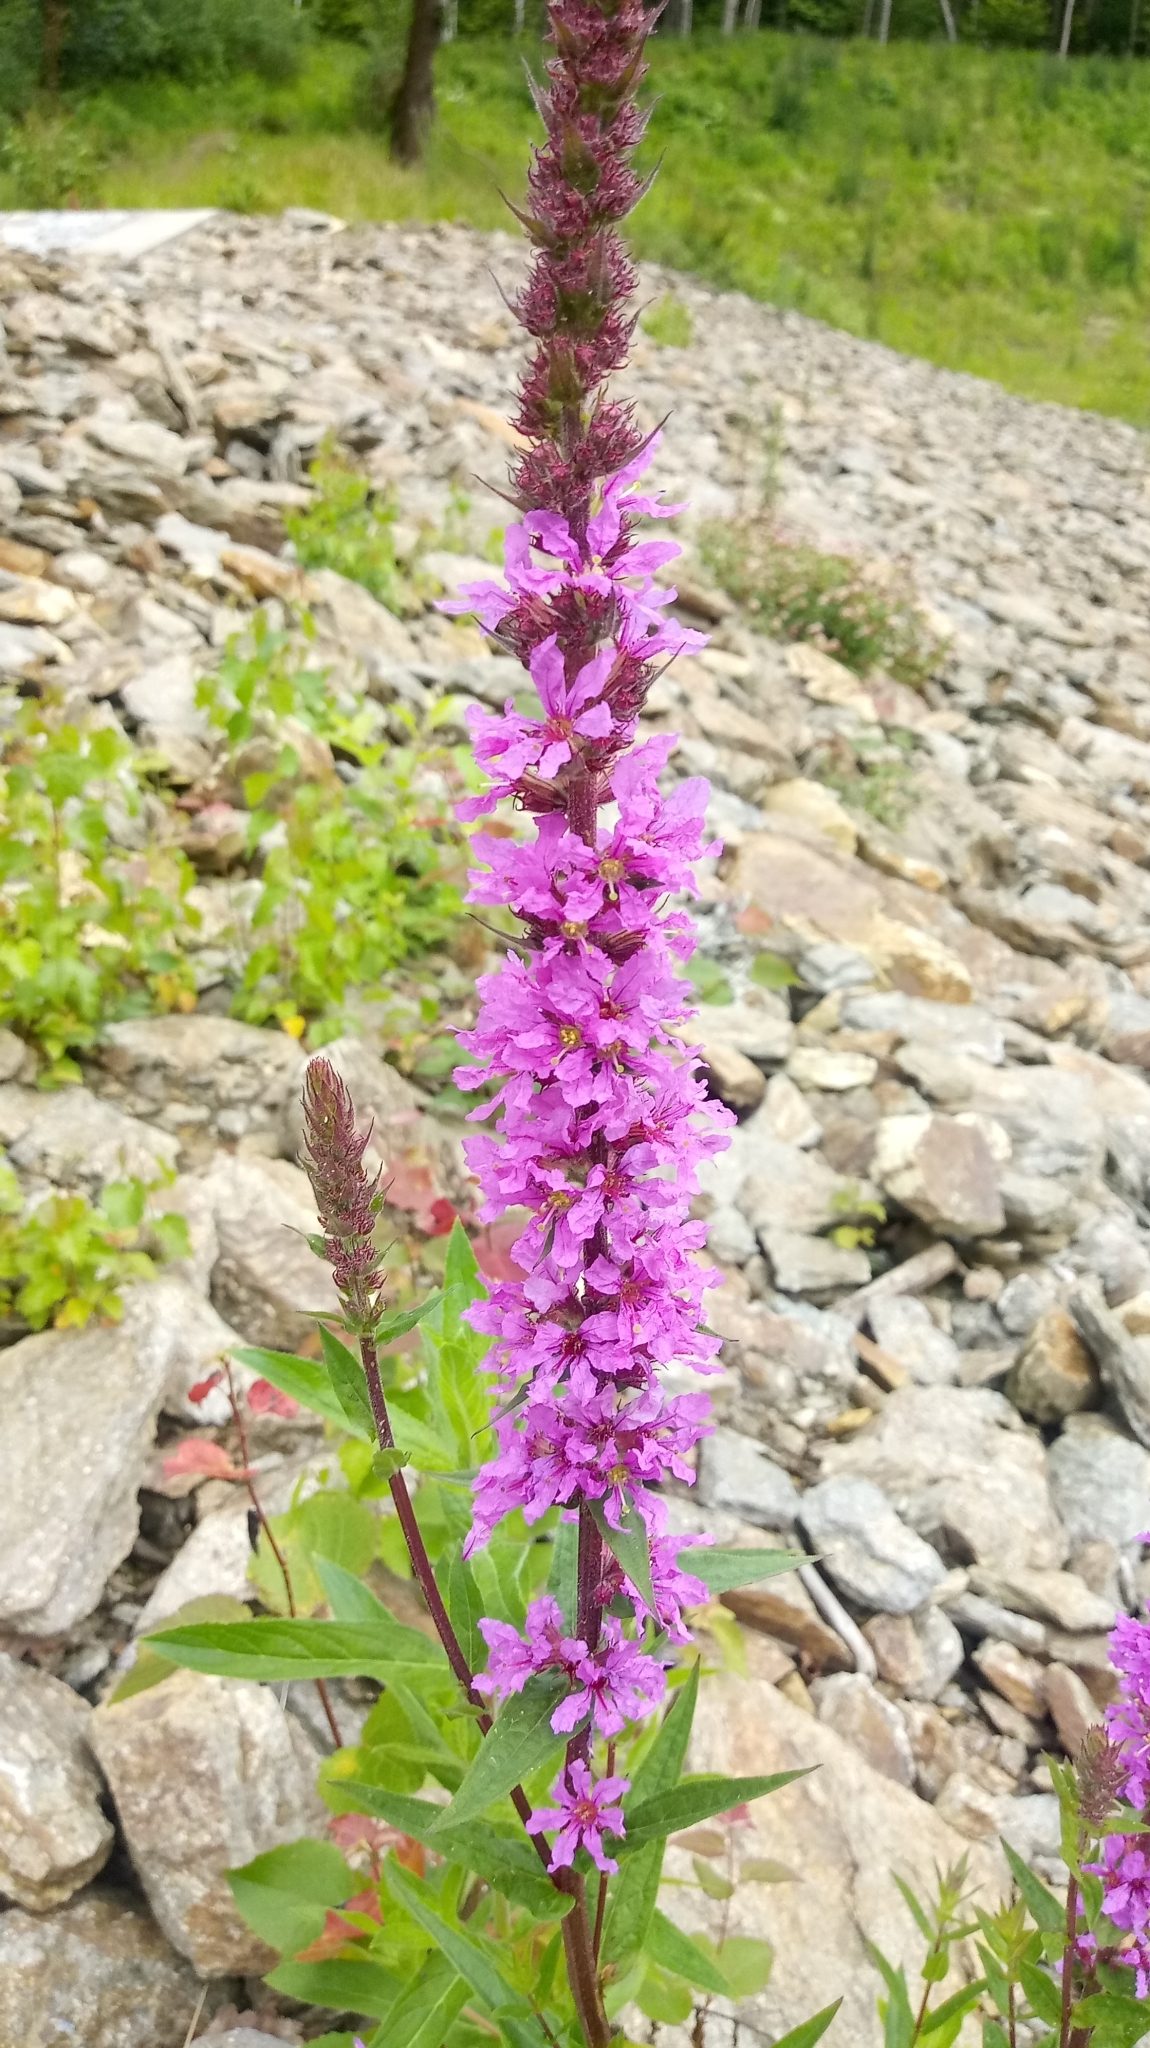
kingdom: Plantae
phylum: Tracheophyta
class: Magnoliopsida
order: Myrtales
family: Lythraceae
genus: Lythrum
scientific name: Lythrum salicaria
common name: Purple loosestrife
